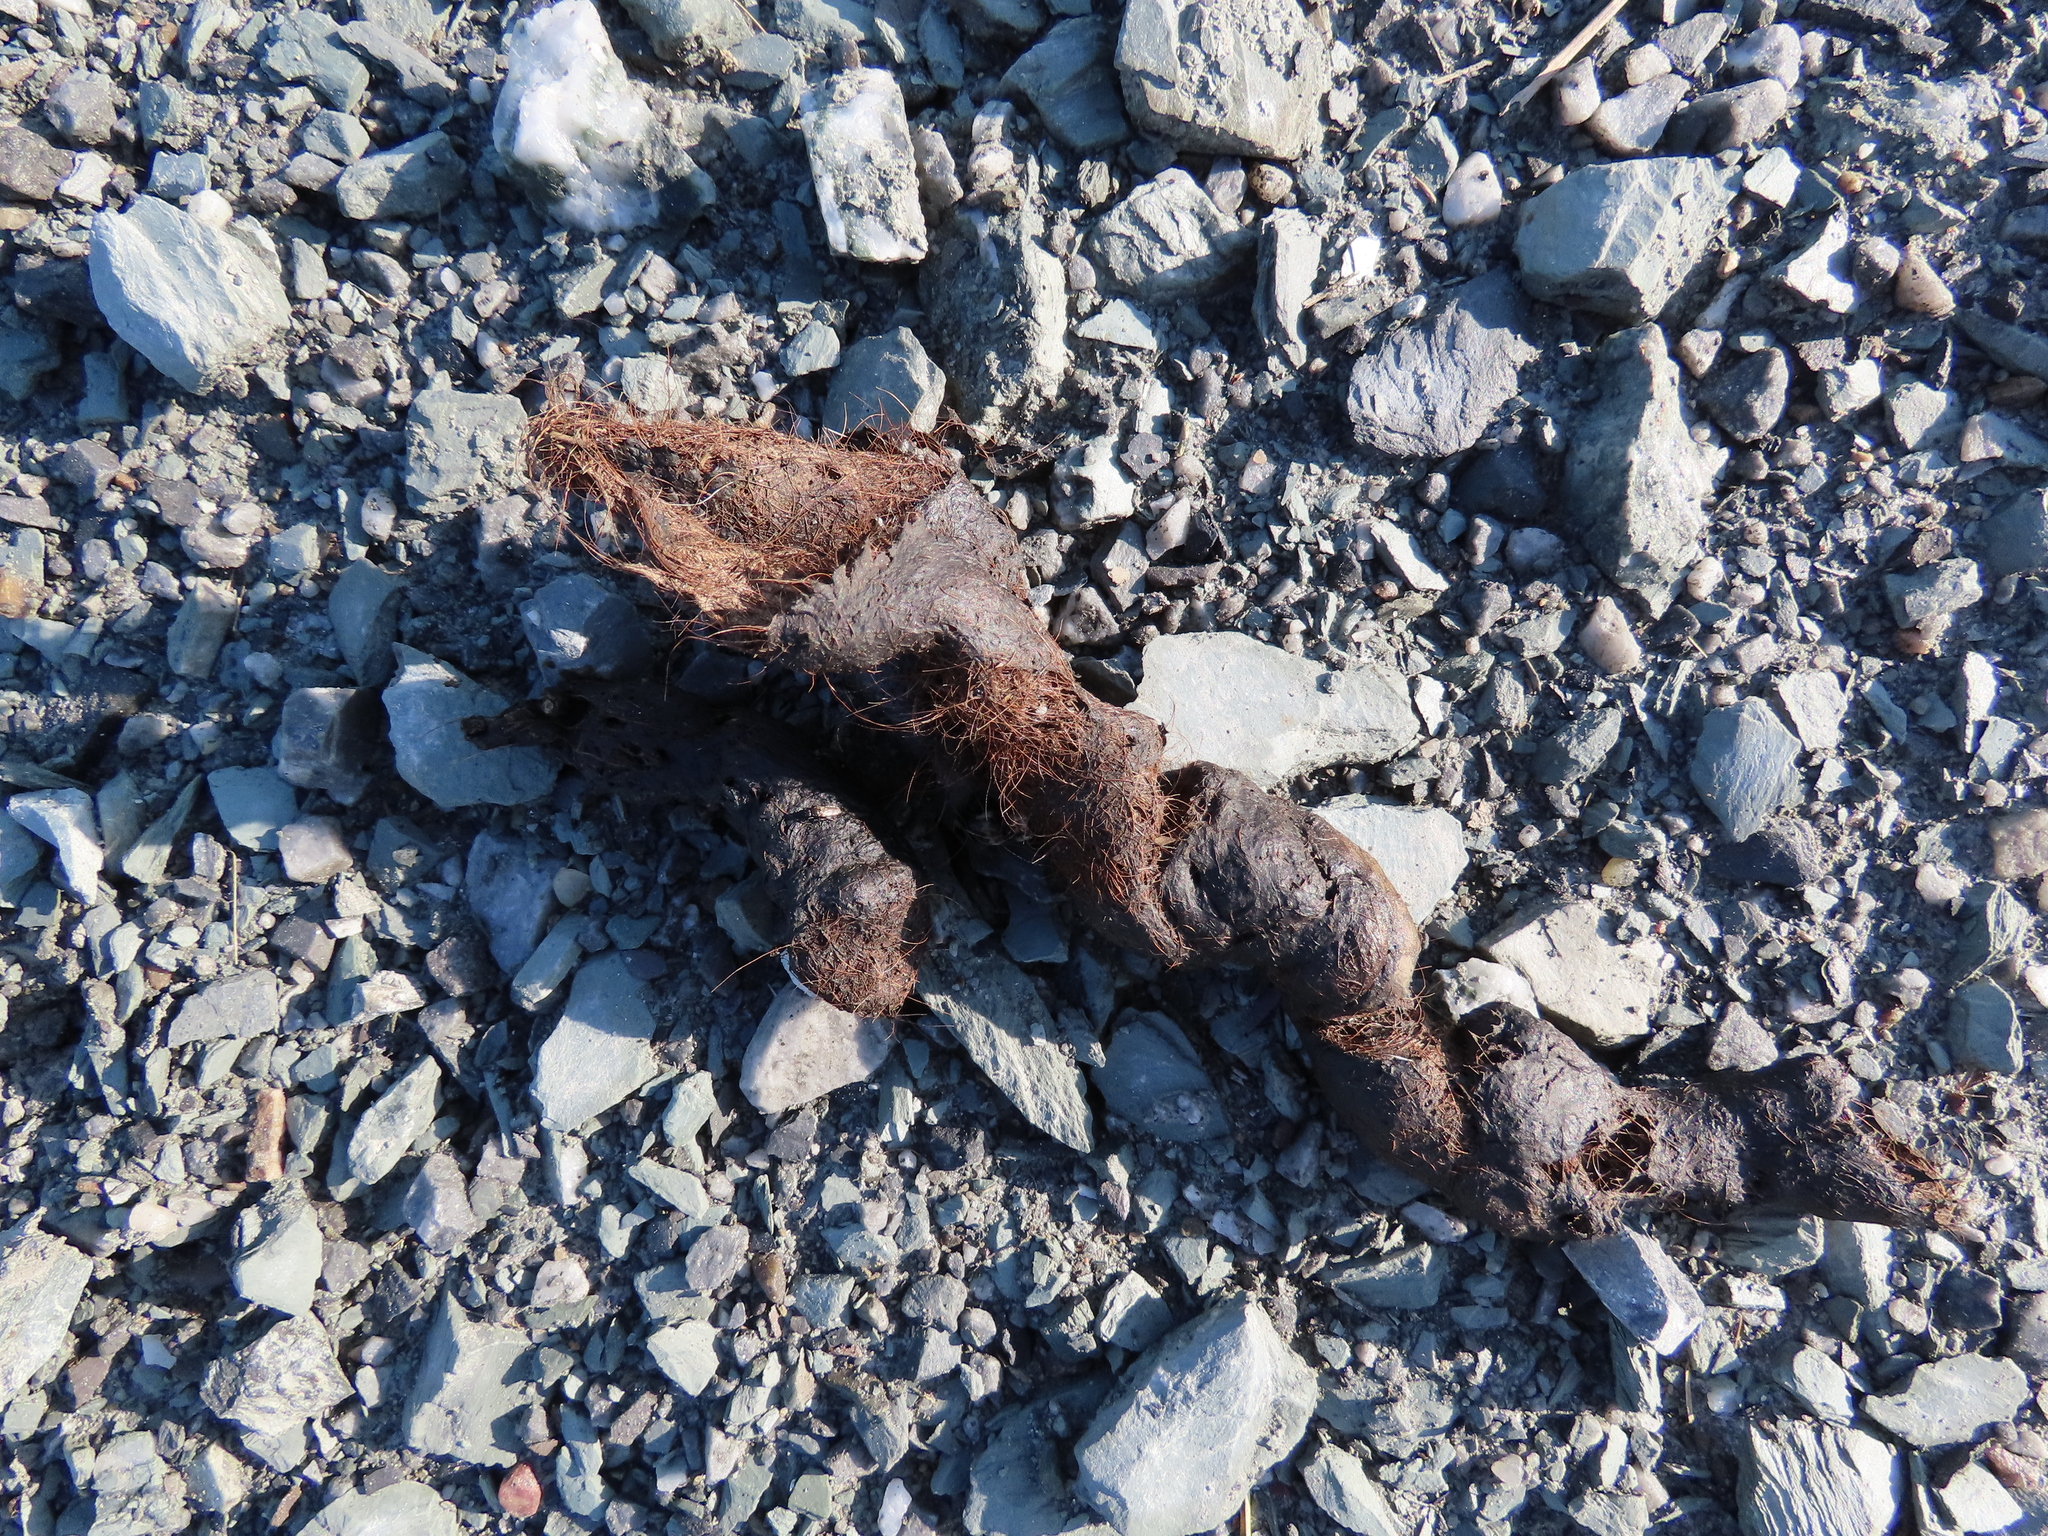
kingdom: Animalia
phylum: Chordata
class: Mammalia
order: Carnivora
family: Canidae
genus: Canis
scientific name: Canis latrans
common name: Coyote
